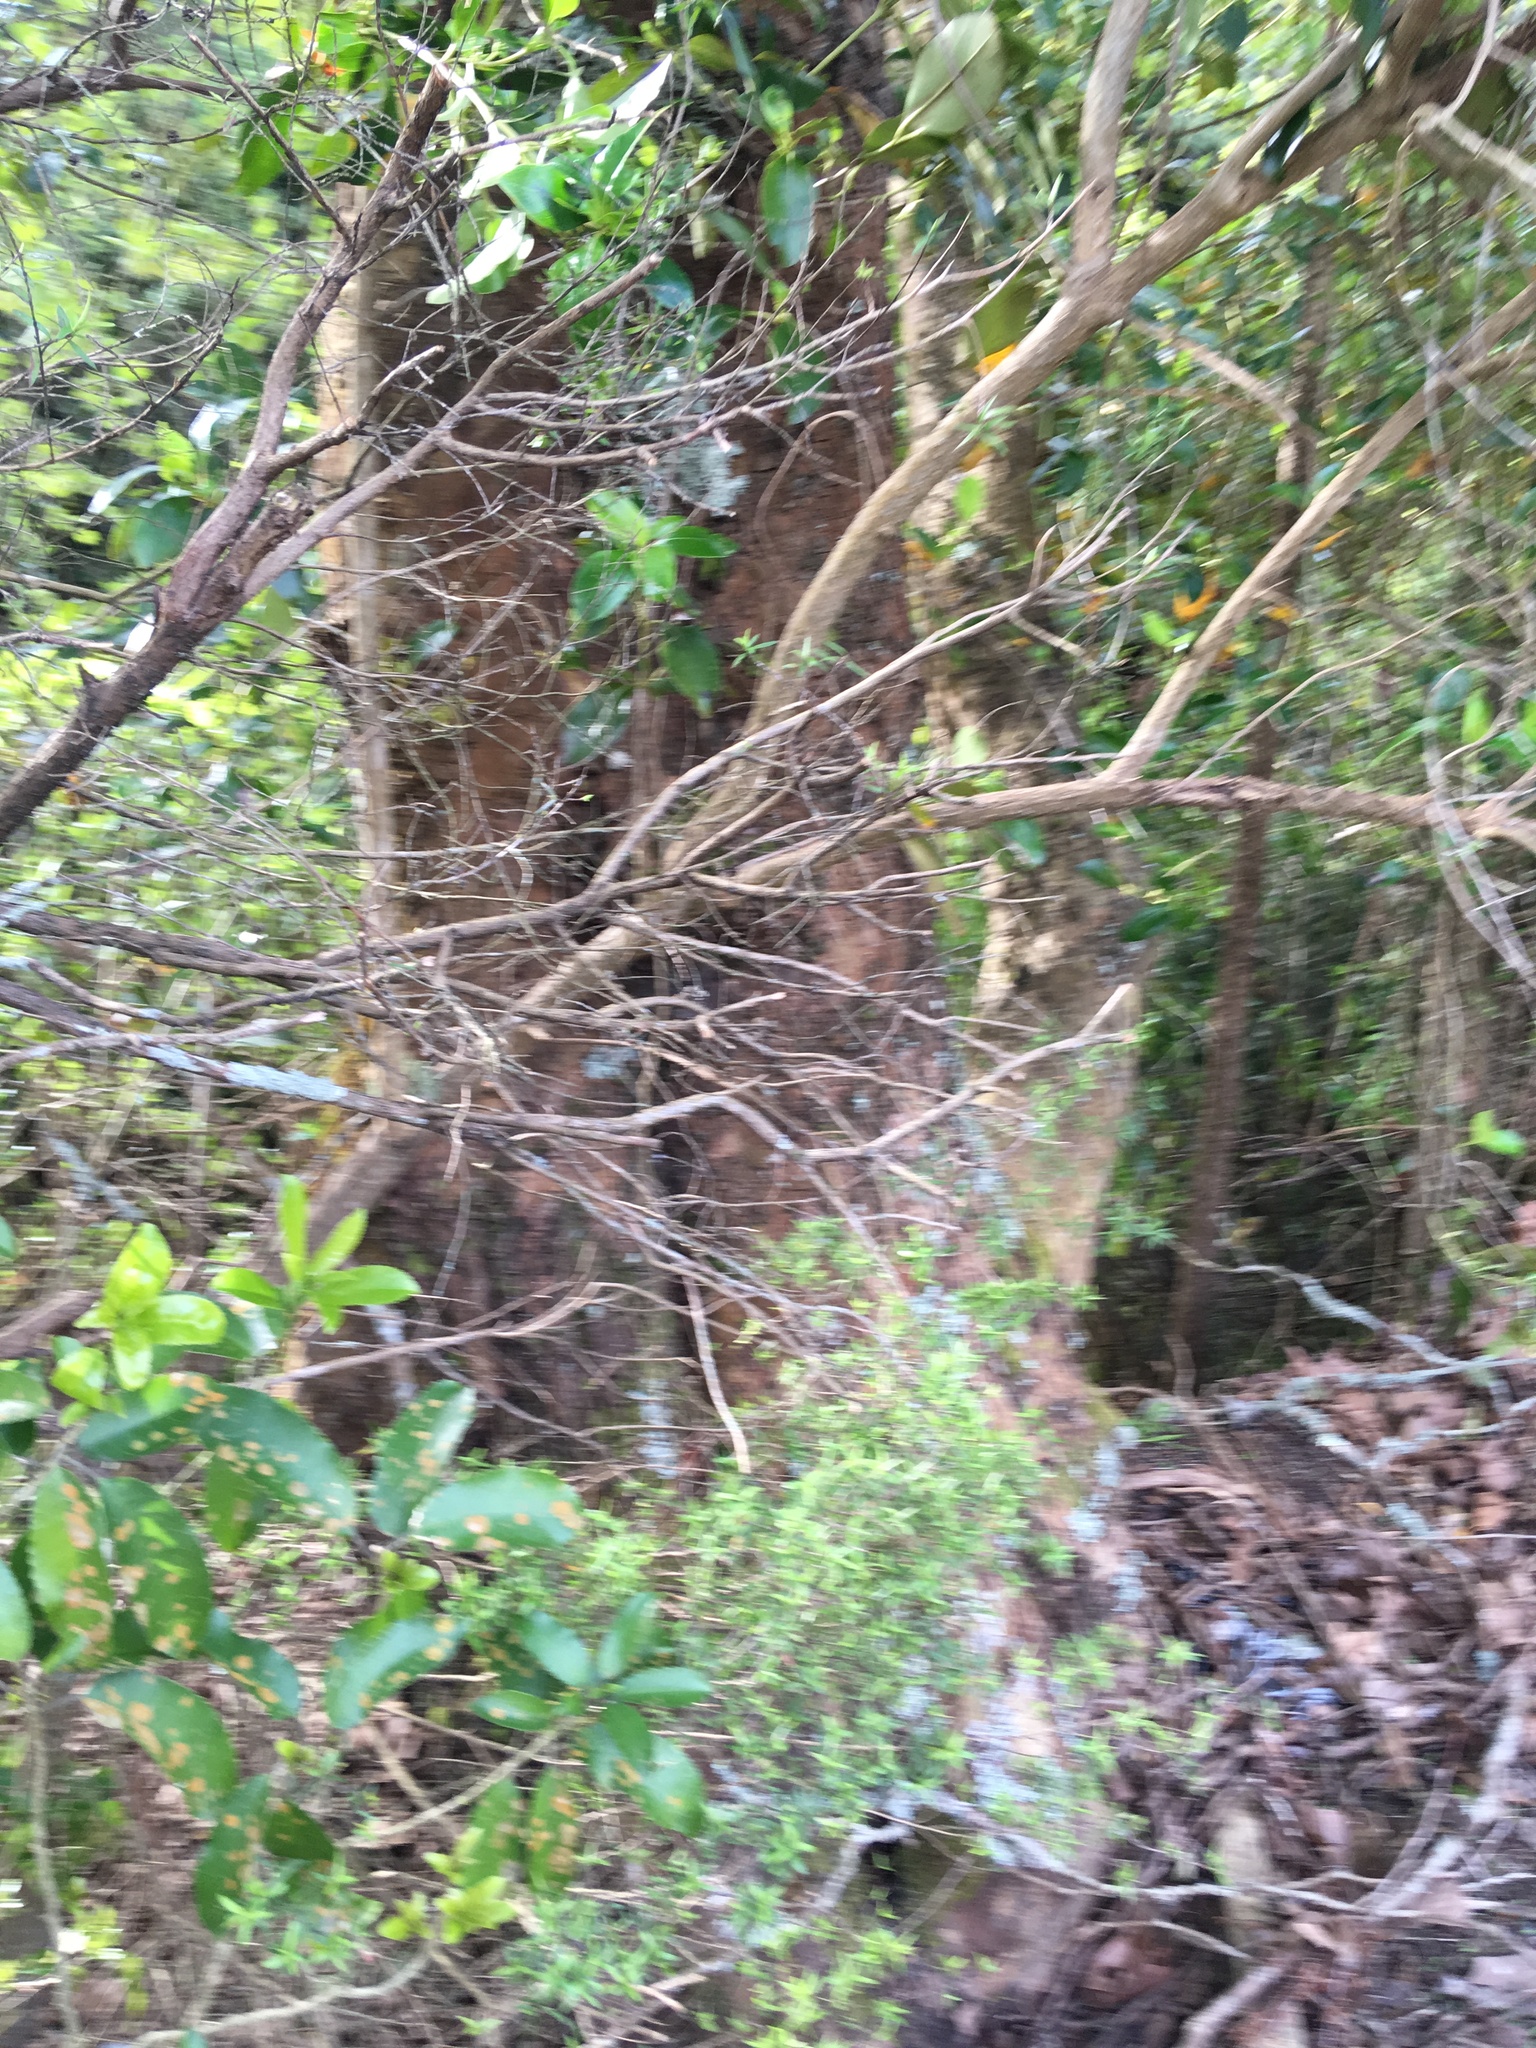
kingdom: Plantae
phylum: Tracheophyta
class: Magnoliopsida
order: Malpighiales
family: Violaceae
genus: Melicytus
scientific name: Melicytus ramiflorus
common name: Mahoe
